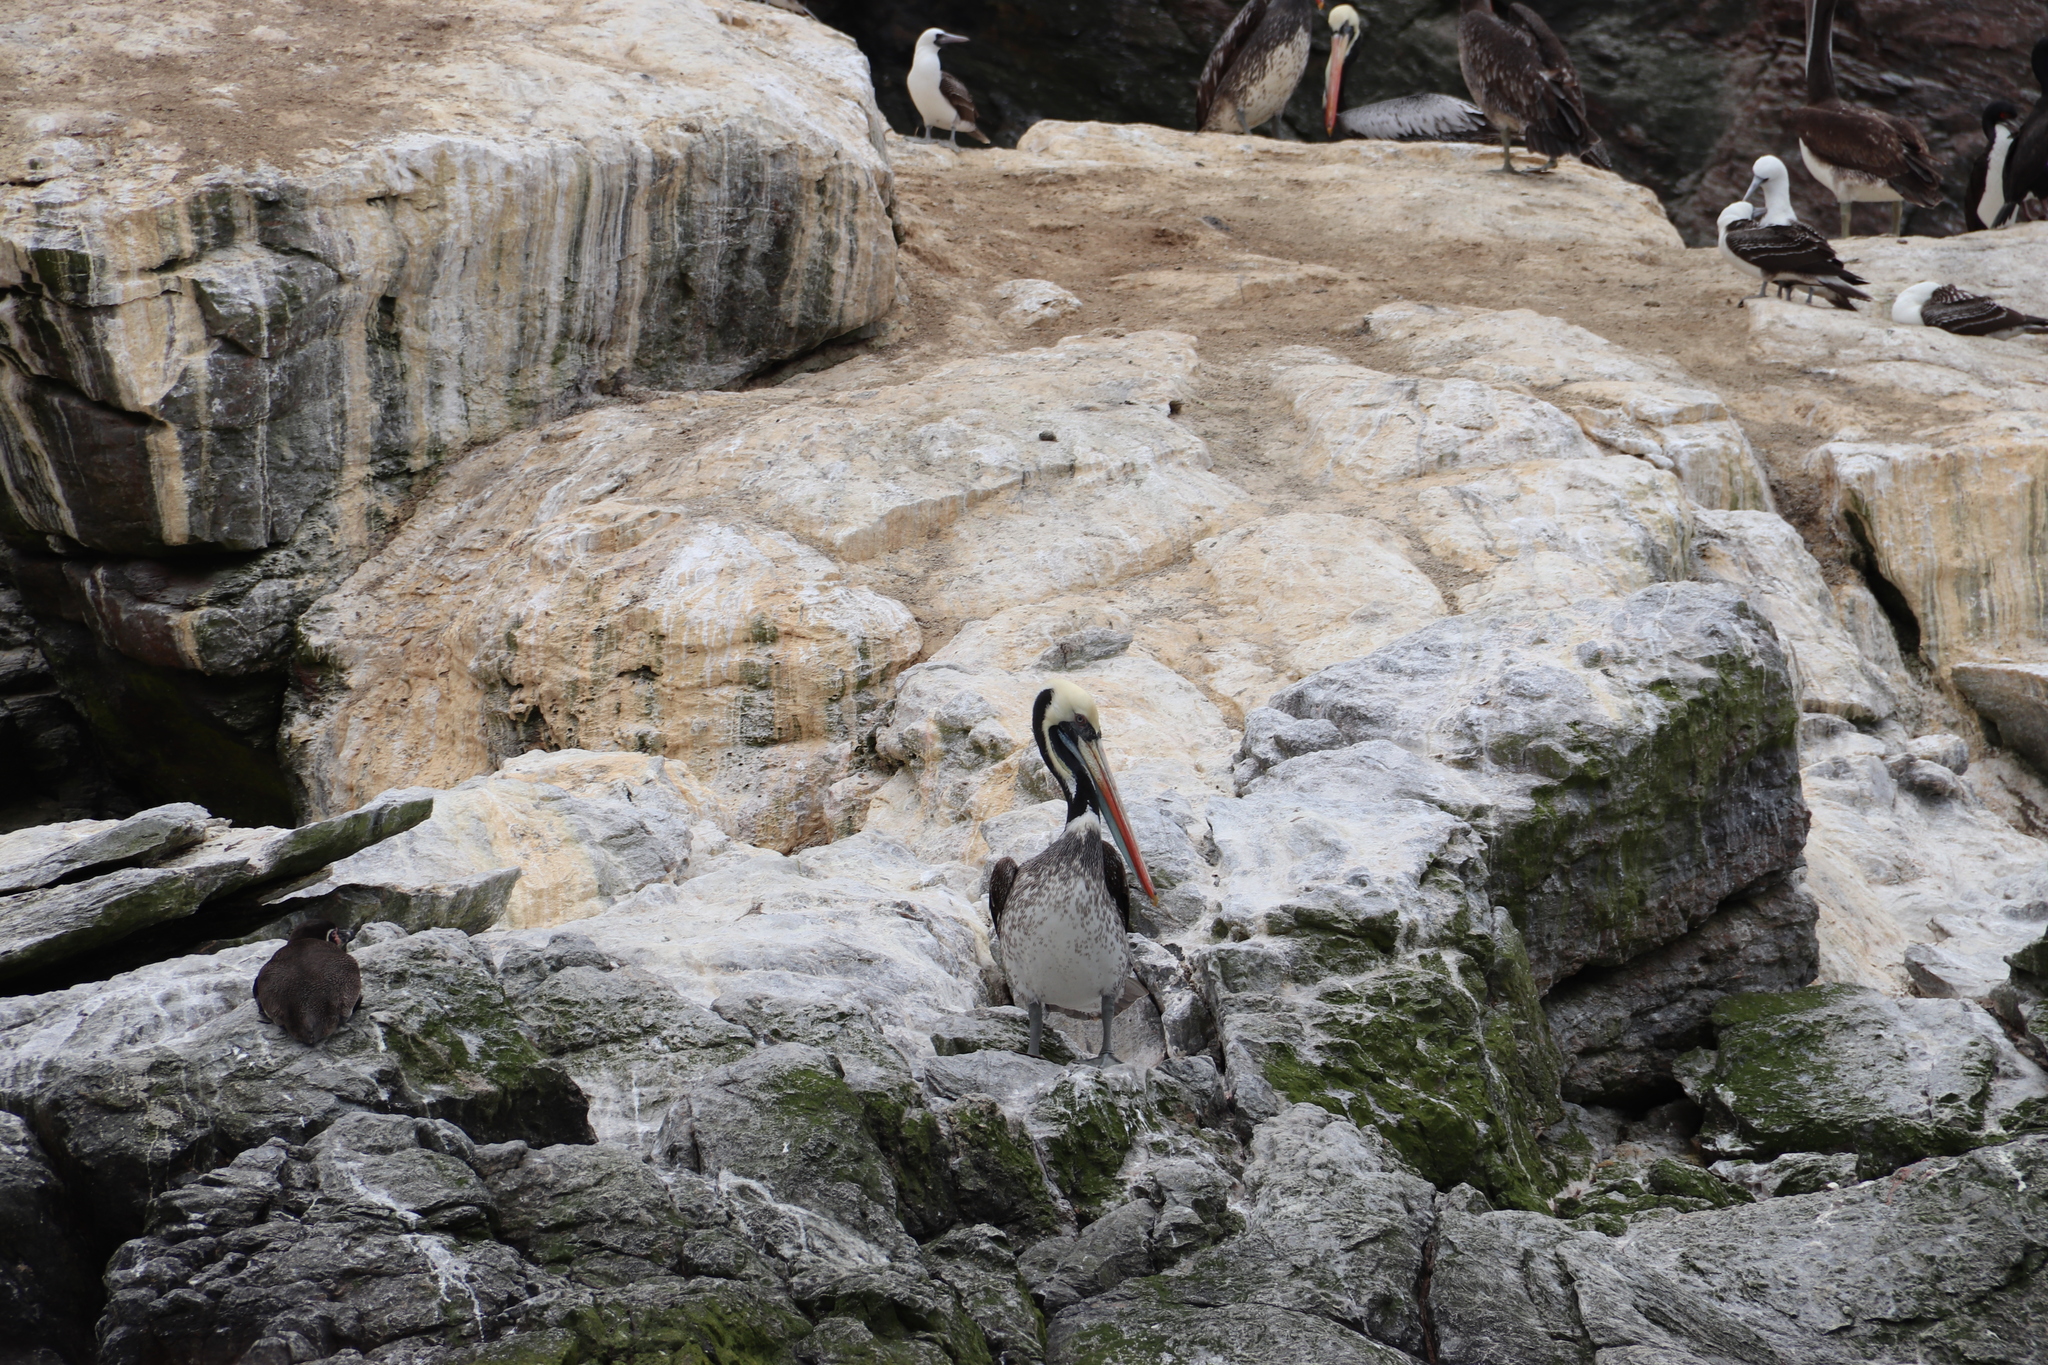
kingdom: Animalia
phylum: Chordata
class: Aves
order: Pelecaniformes
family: Pelecanidae
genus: Pelecanus
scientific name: Pelecanus thagus
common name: Peruvian pelican
